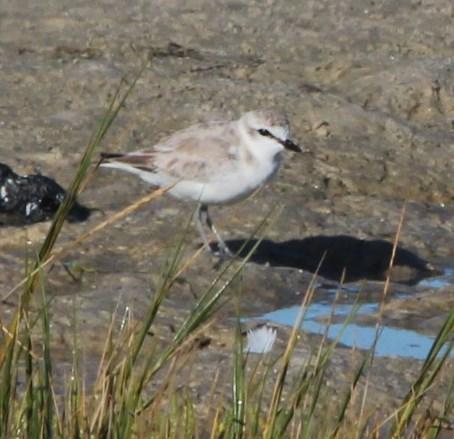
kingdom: Animalia
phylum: Chordata
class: Aves
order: Charadriiformes
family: Charadriidae
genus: Anarhynchus
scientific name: Anarhynchus
